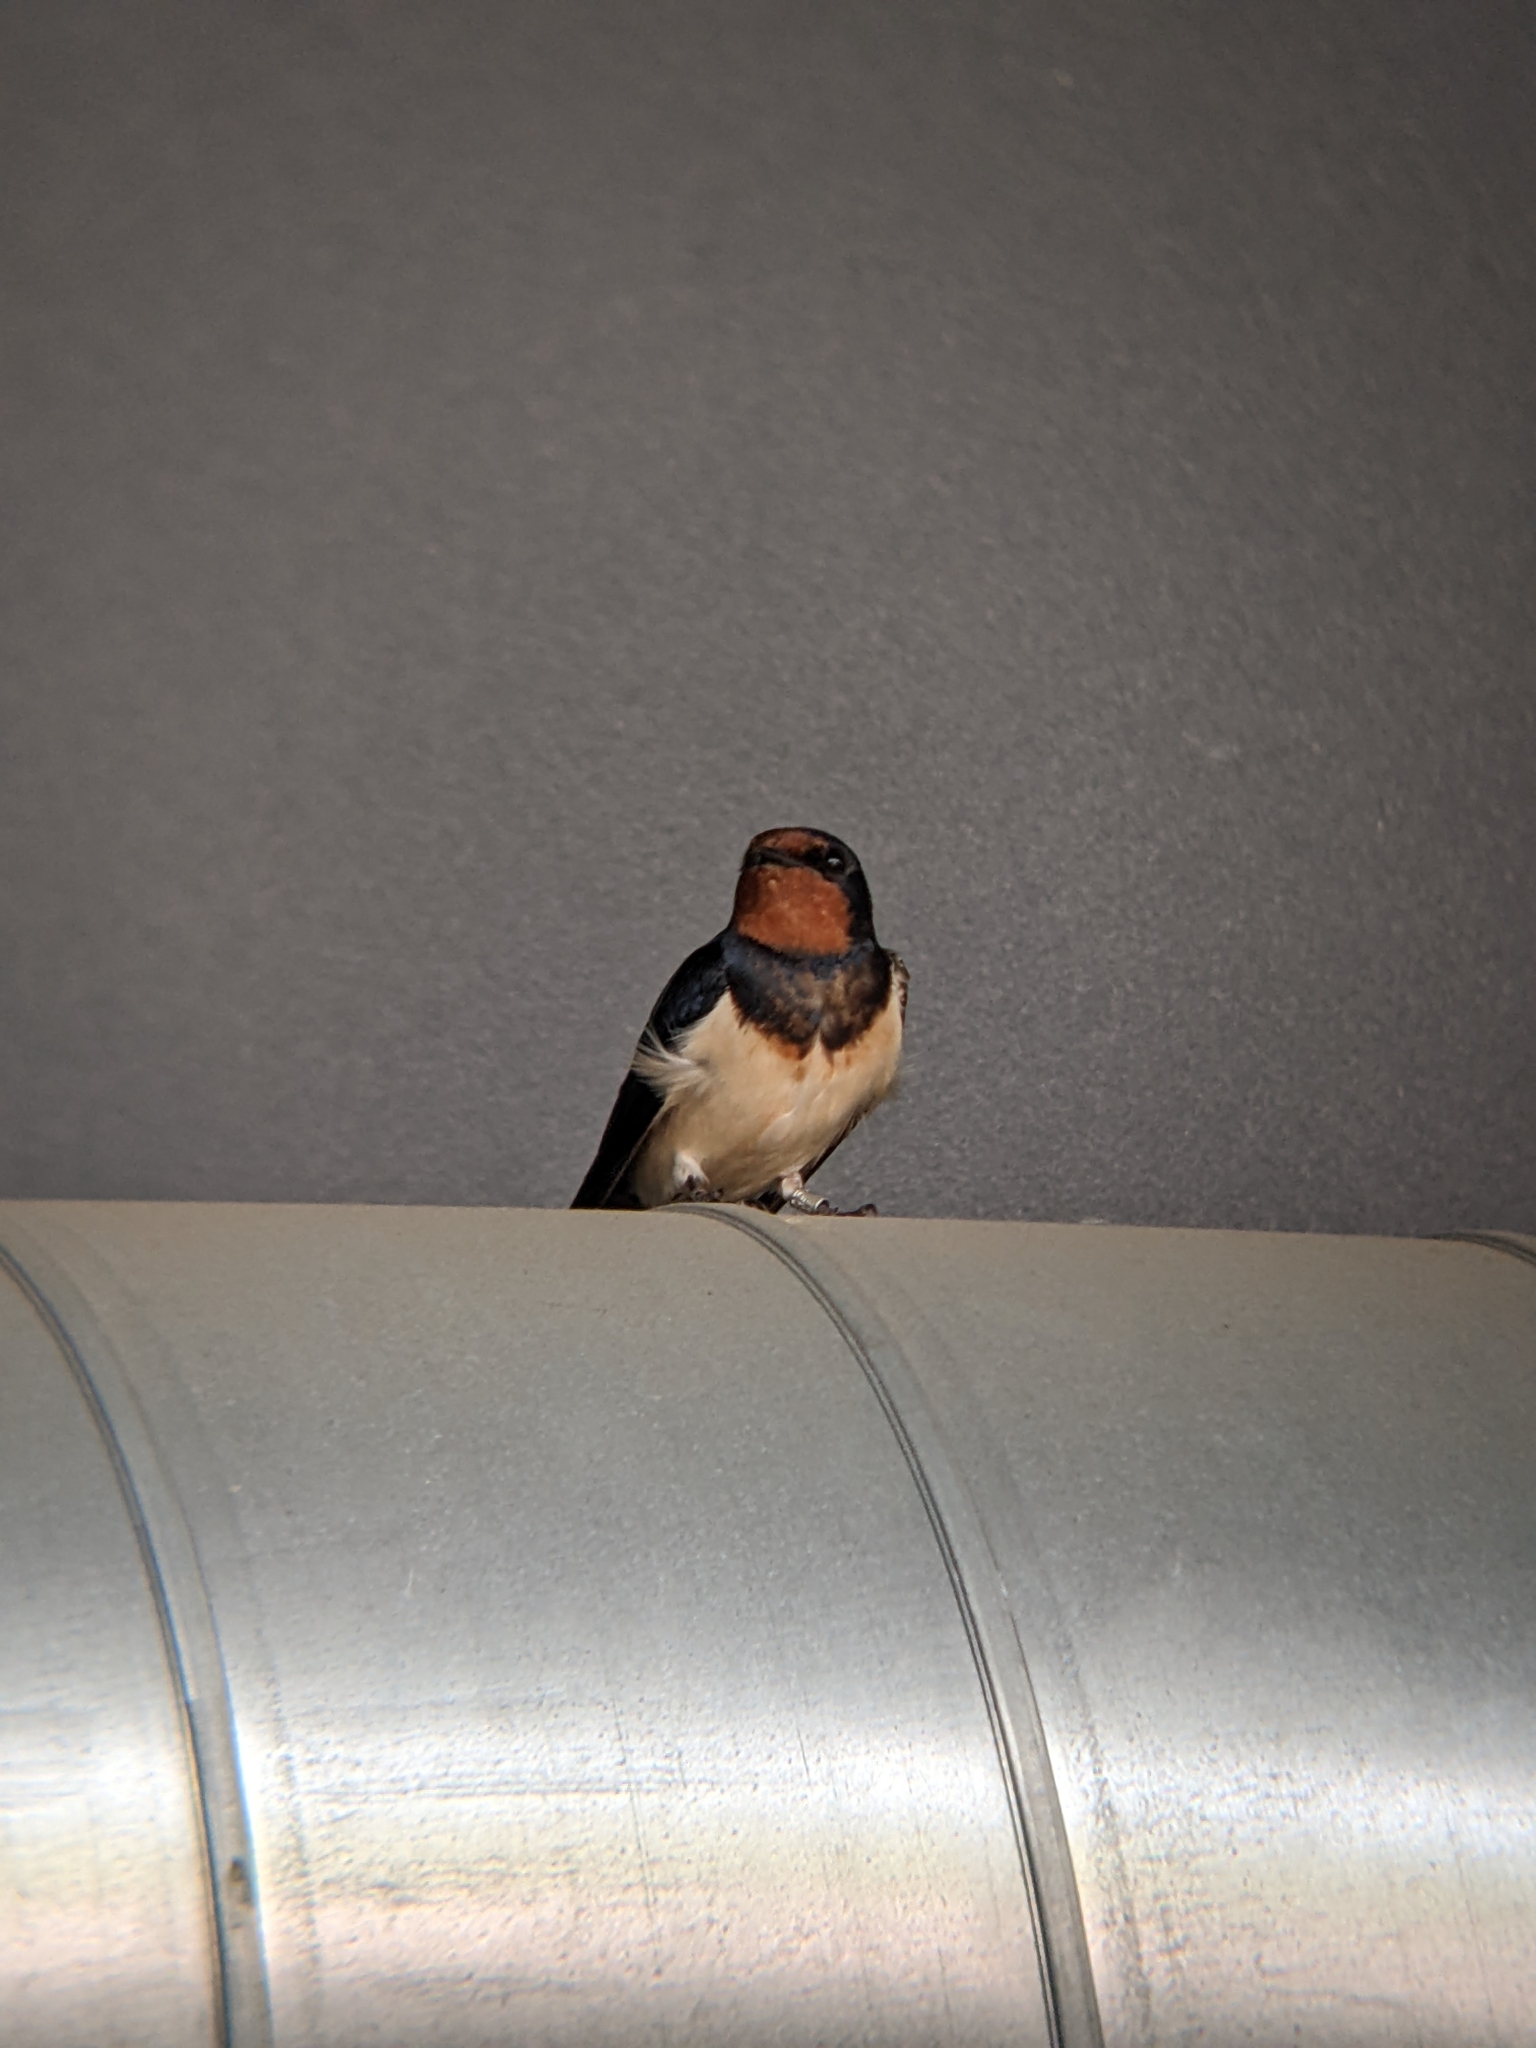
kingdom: Animalia
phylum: Chordata
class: Aves
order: Passeriformes
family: Hirundinidae
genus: Hirundo
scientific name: Hirundo rustica
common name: Barn swallow
